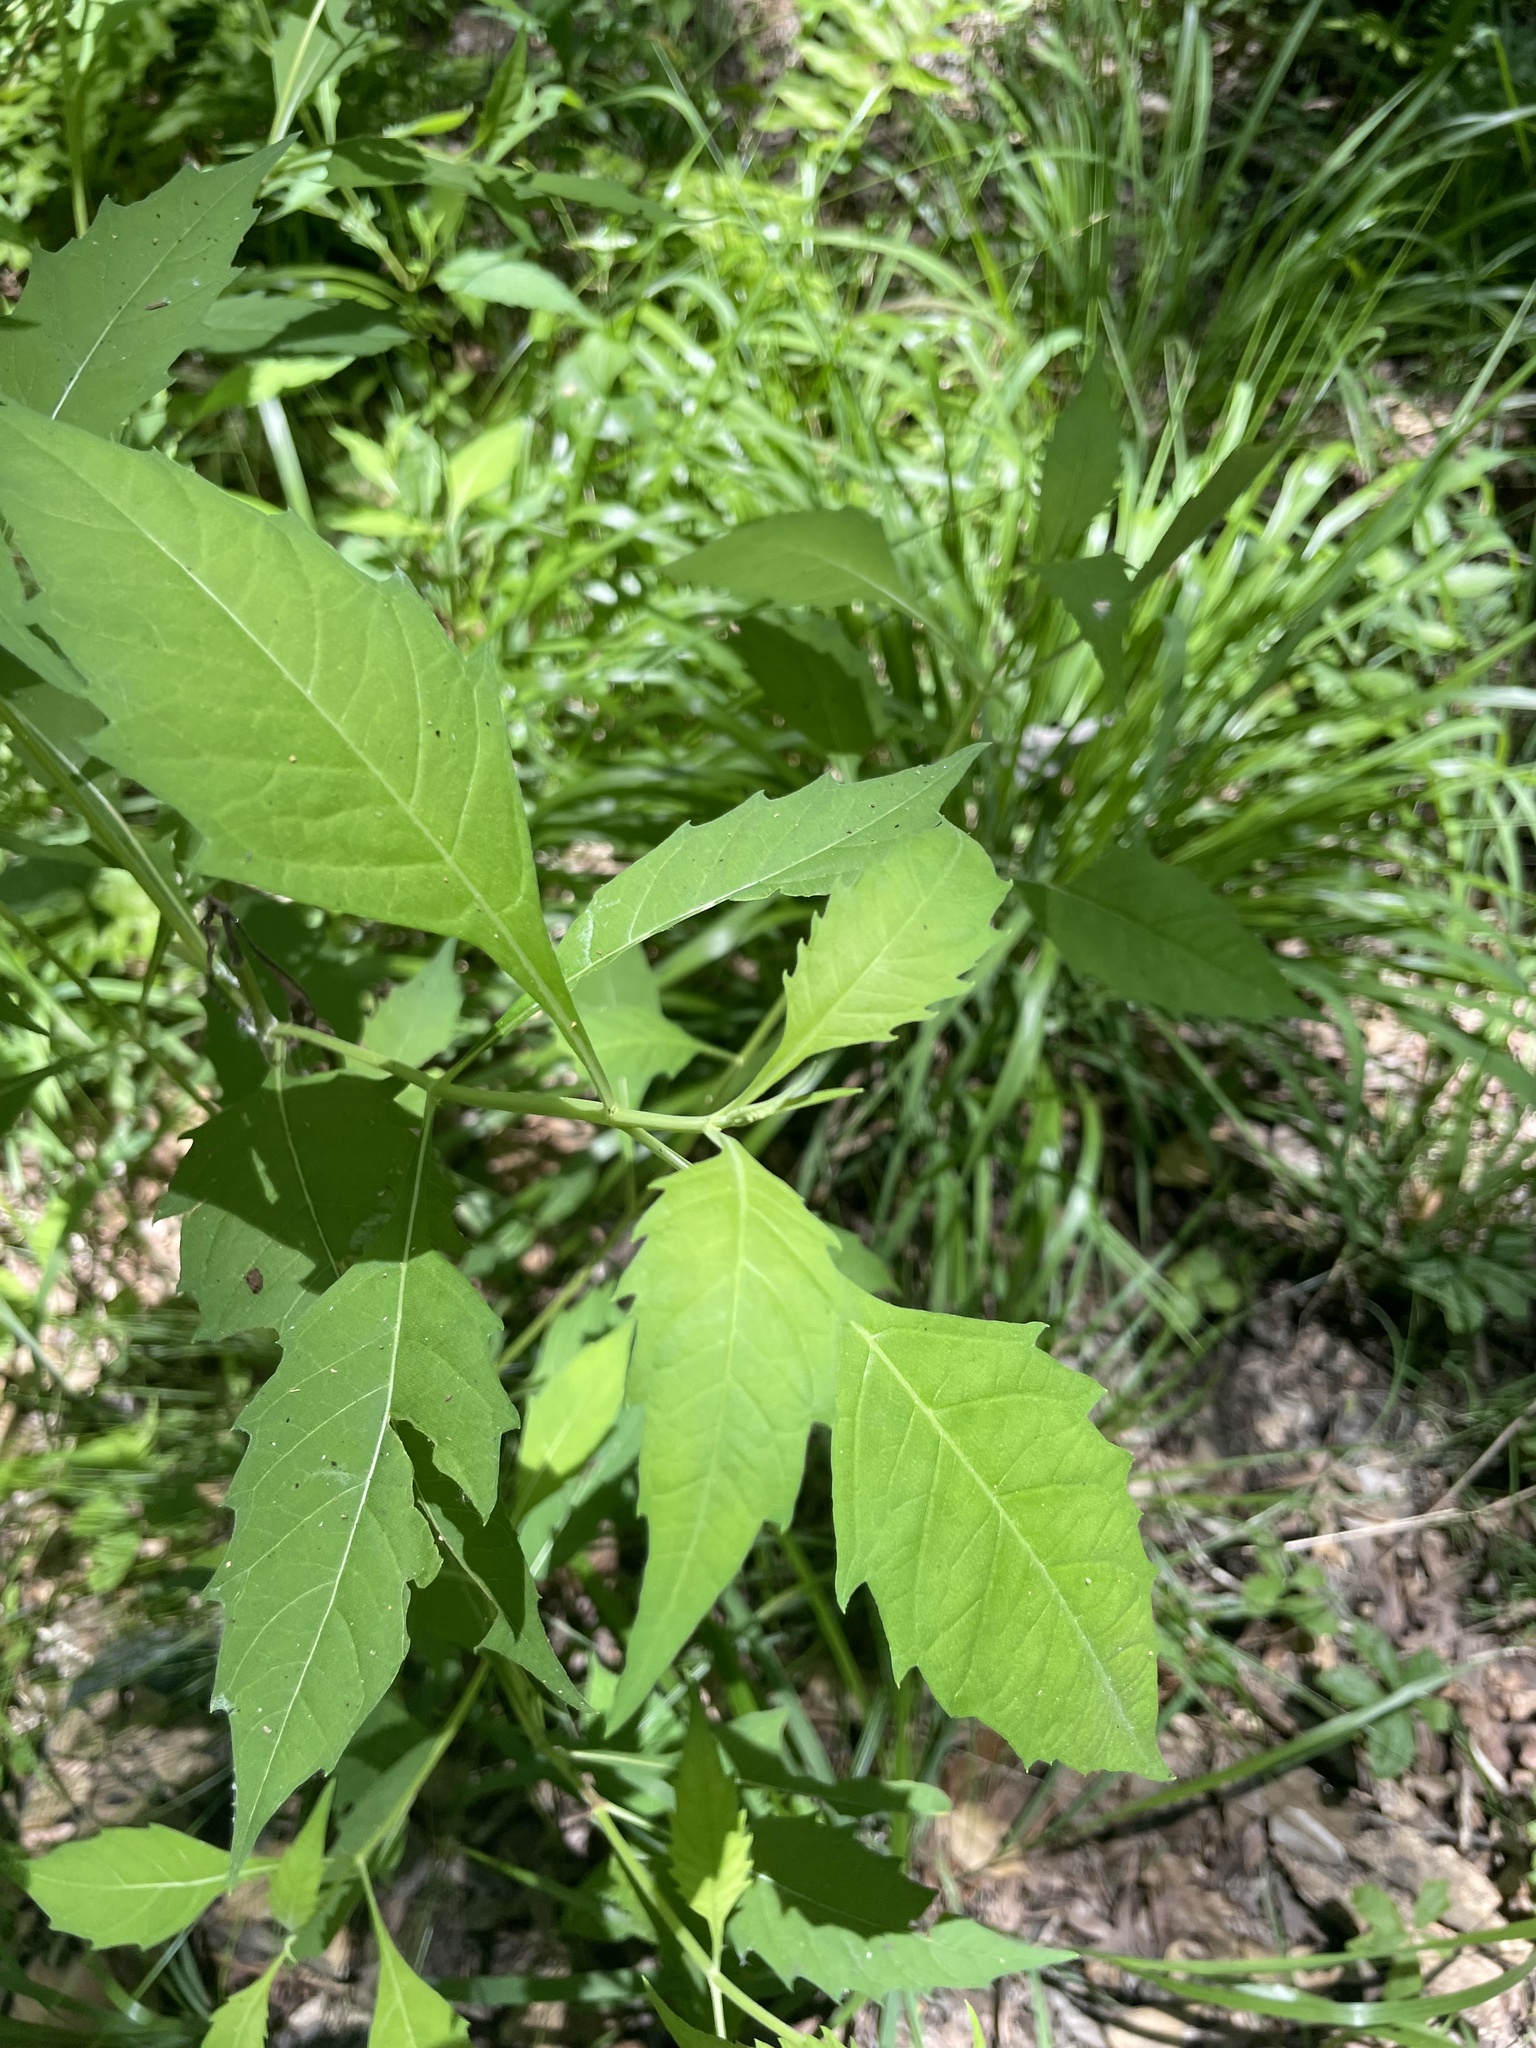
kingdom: Plantae
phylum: Tracheophyta
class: Magnoliopsida
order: Lamiales
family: Lamiaceae
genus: Lycopus
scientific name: Lycopus rubellus
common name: Stalked bugleweed
